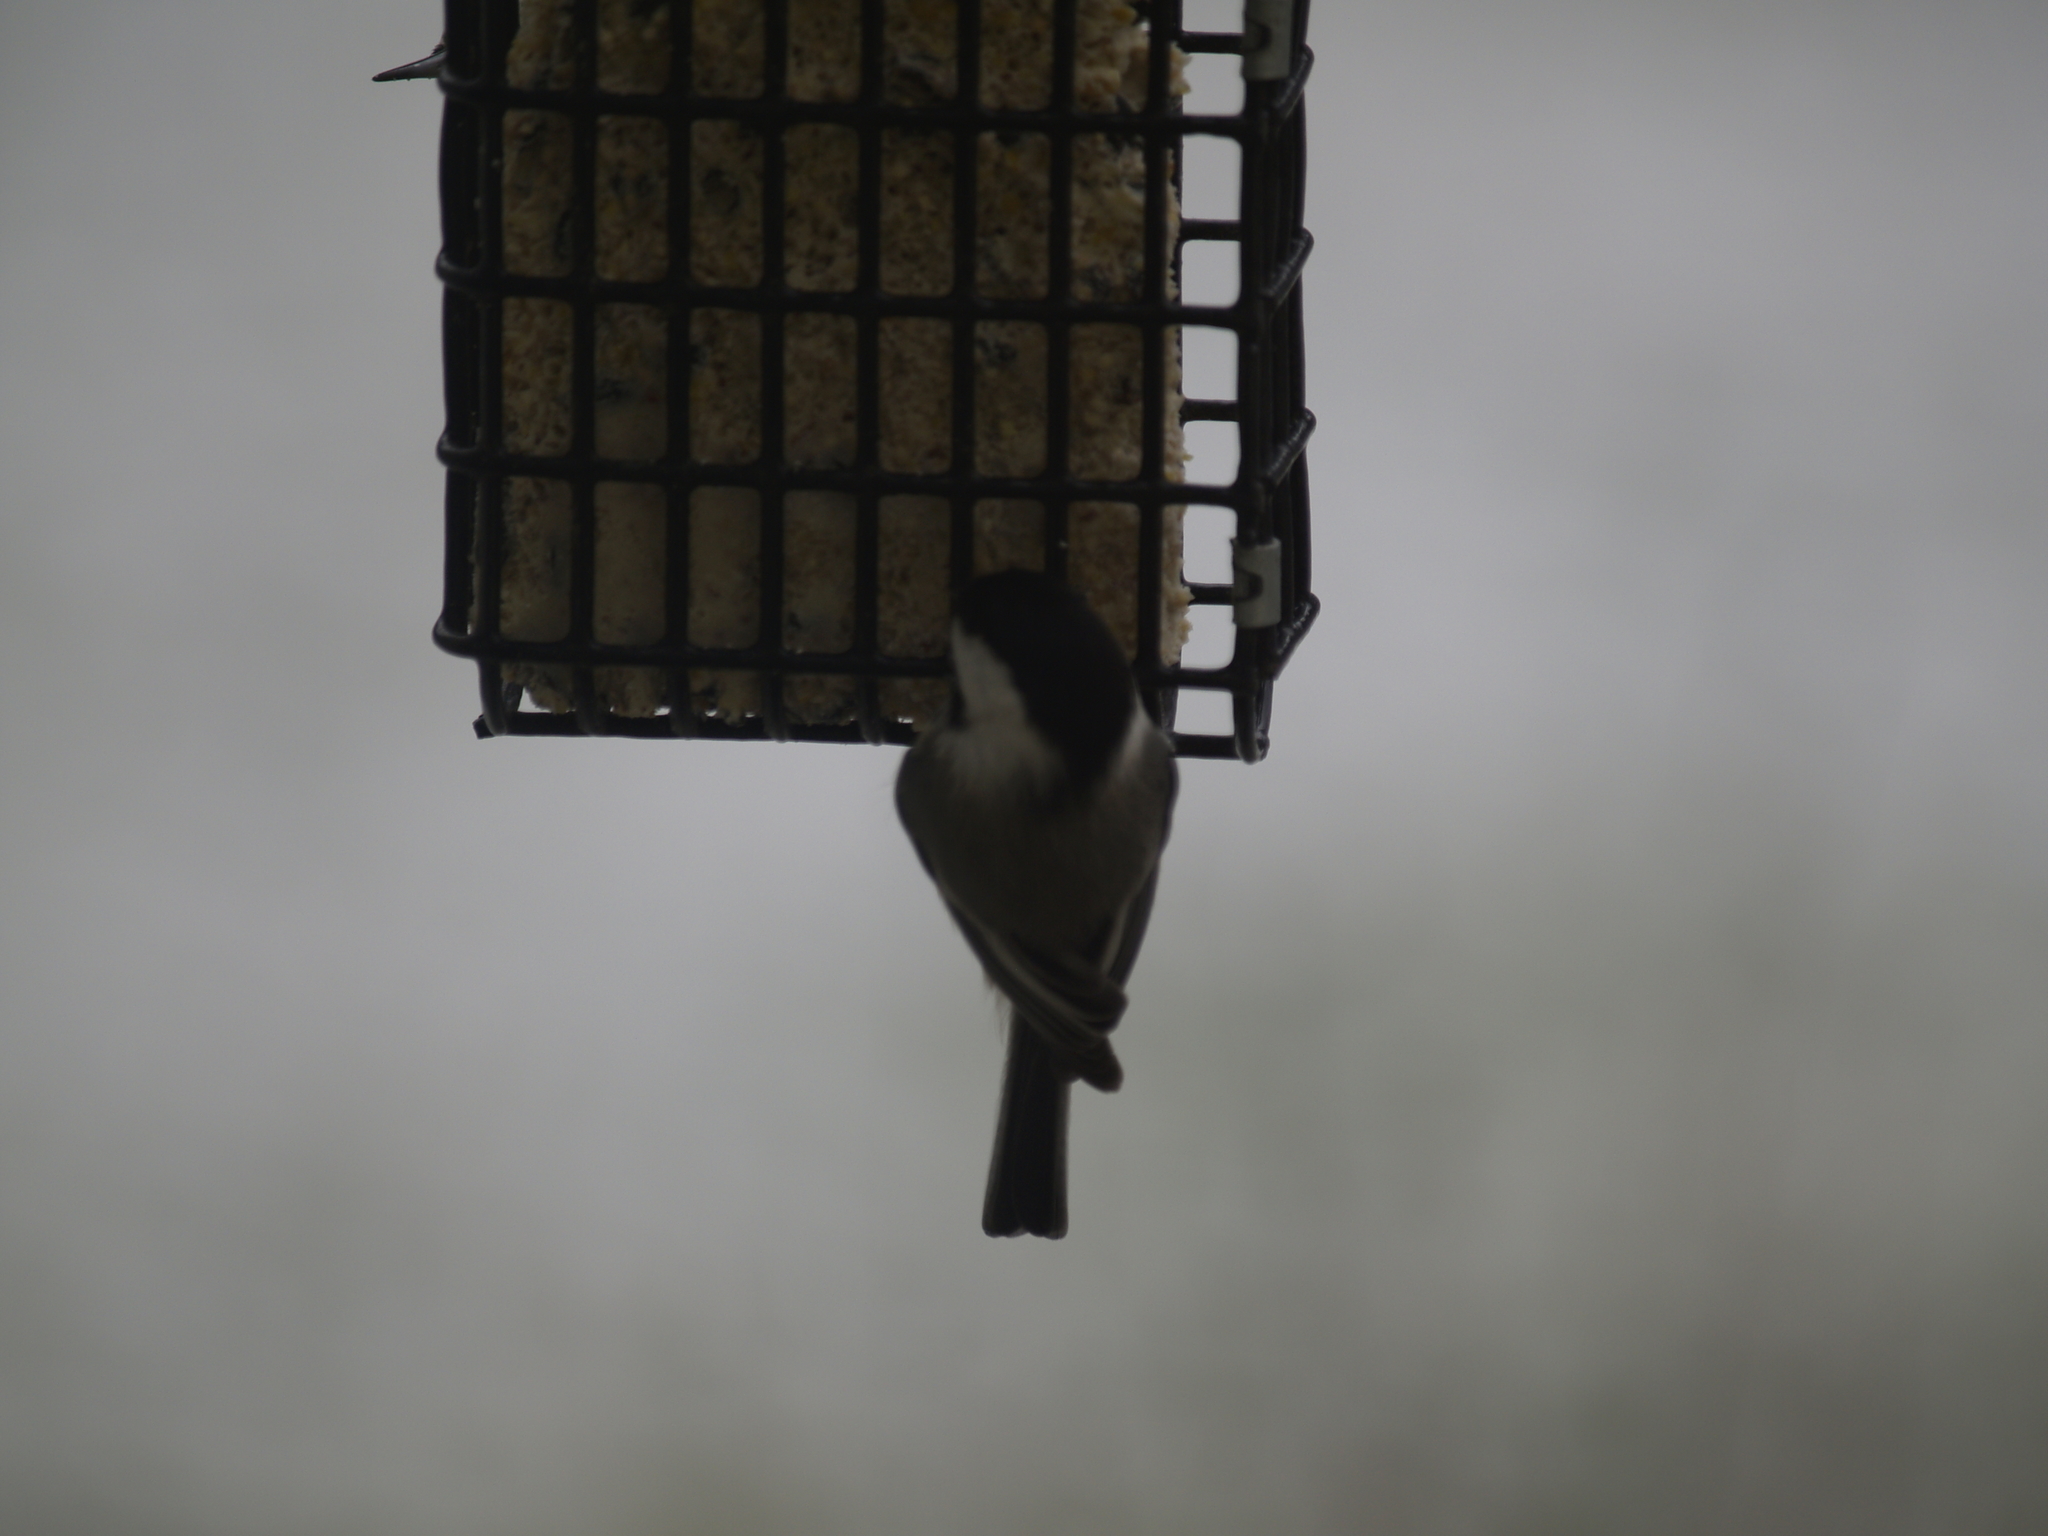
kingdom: Animalia
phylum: Chordata
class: Aves
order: Passeriformes
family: Paridae
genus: Poecile
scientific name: Poecile atricapillus
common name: Black-capped chickadee
